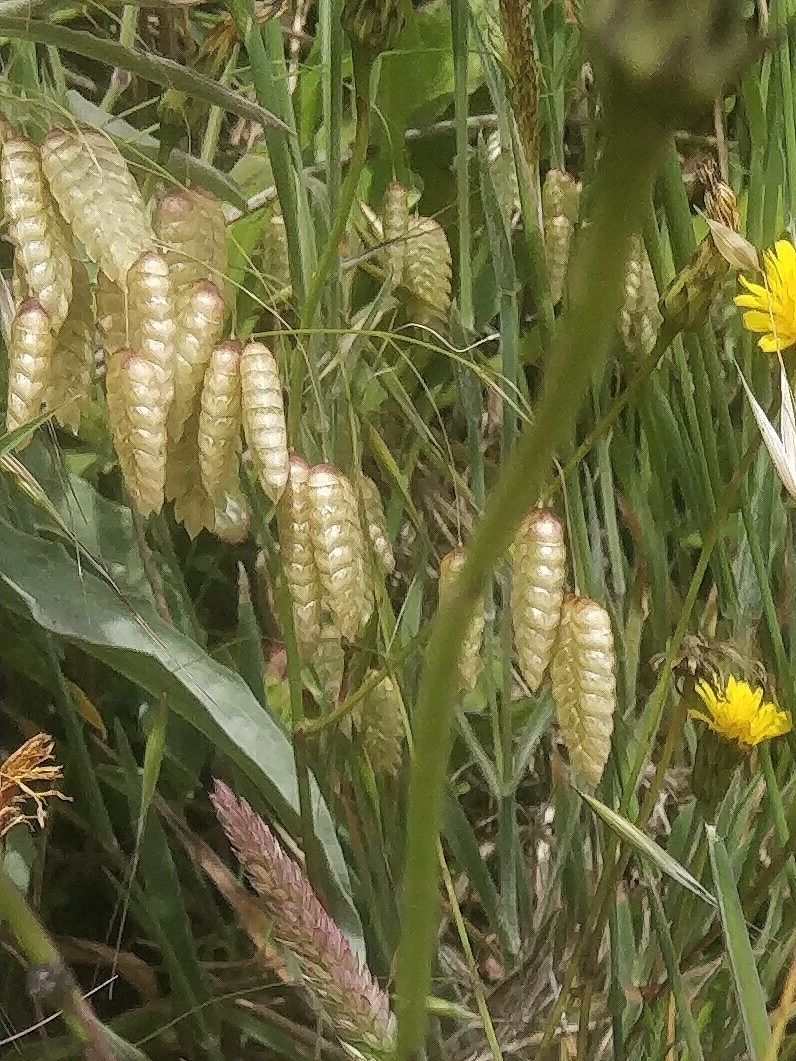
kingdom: Plantae
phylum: Tracheophyta
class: Liliopsida
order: Poales
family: Poaceae
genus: Briza
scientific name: Briza maxima
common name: Big quakinggrass
